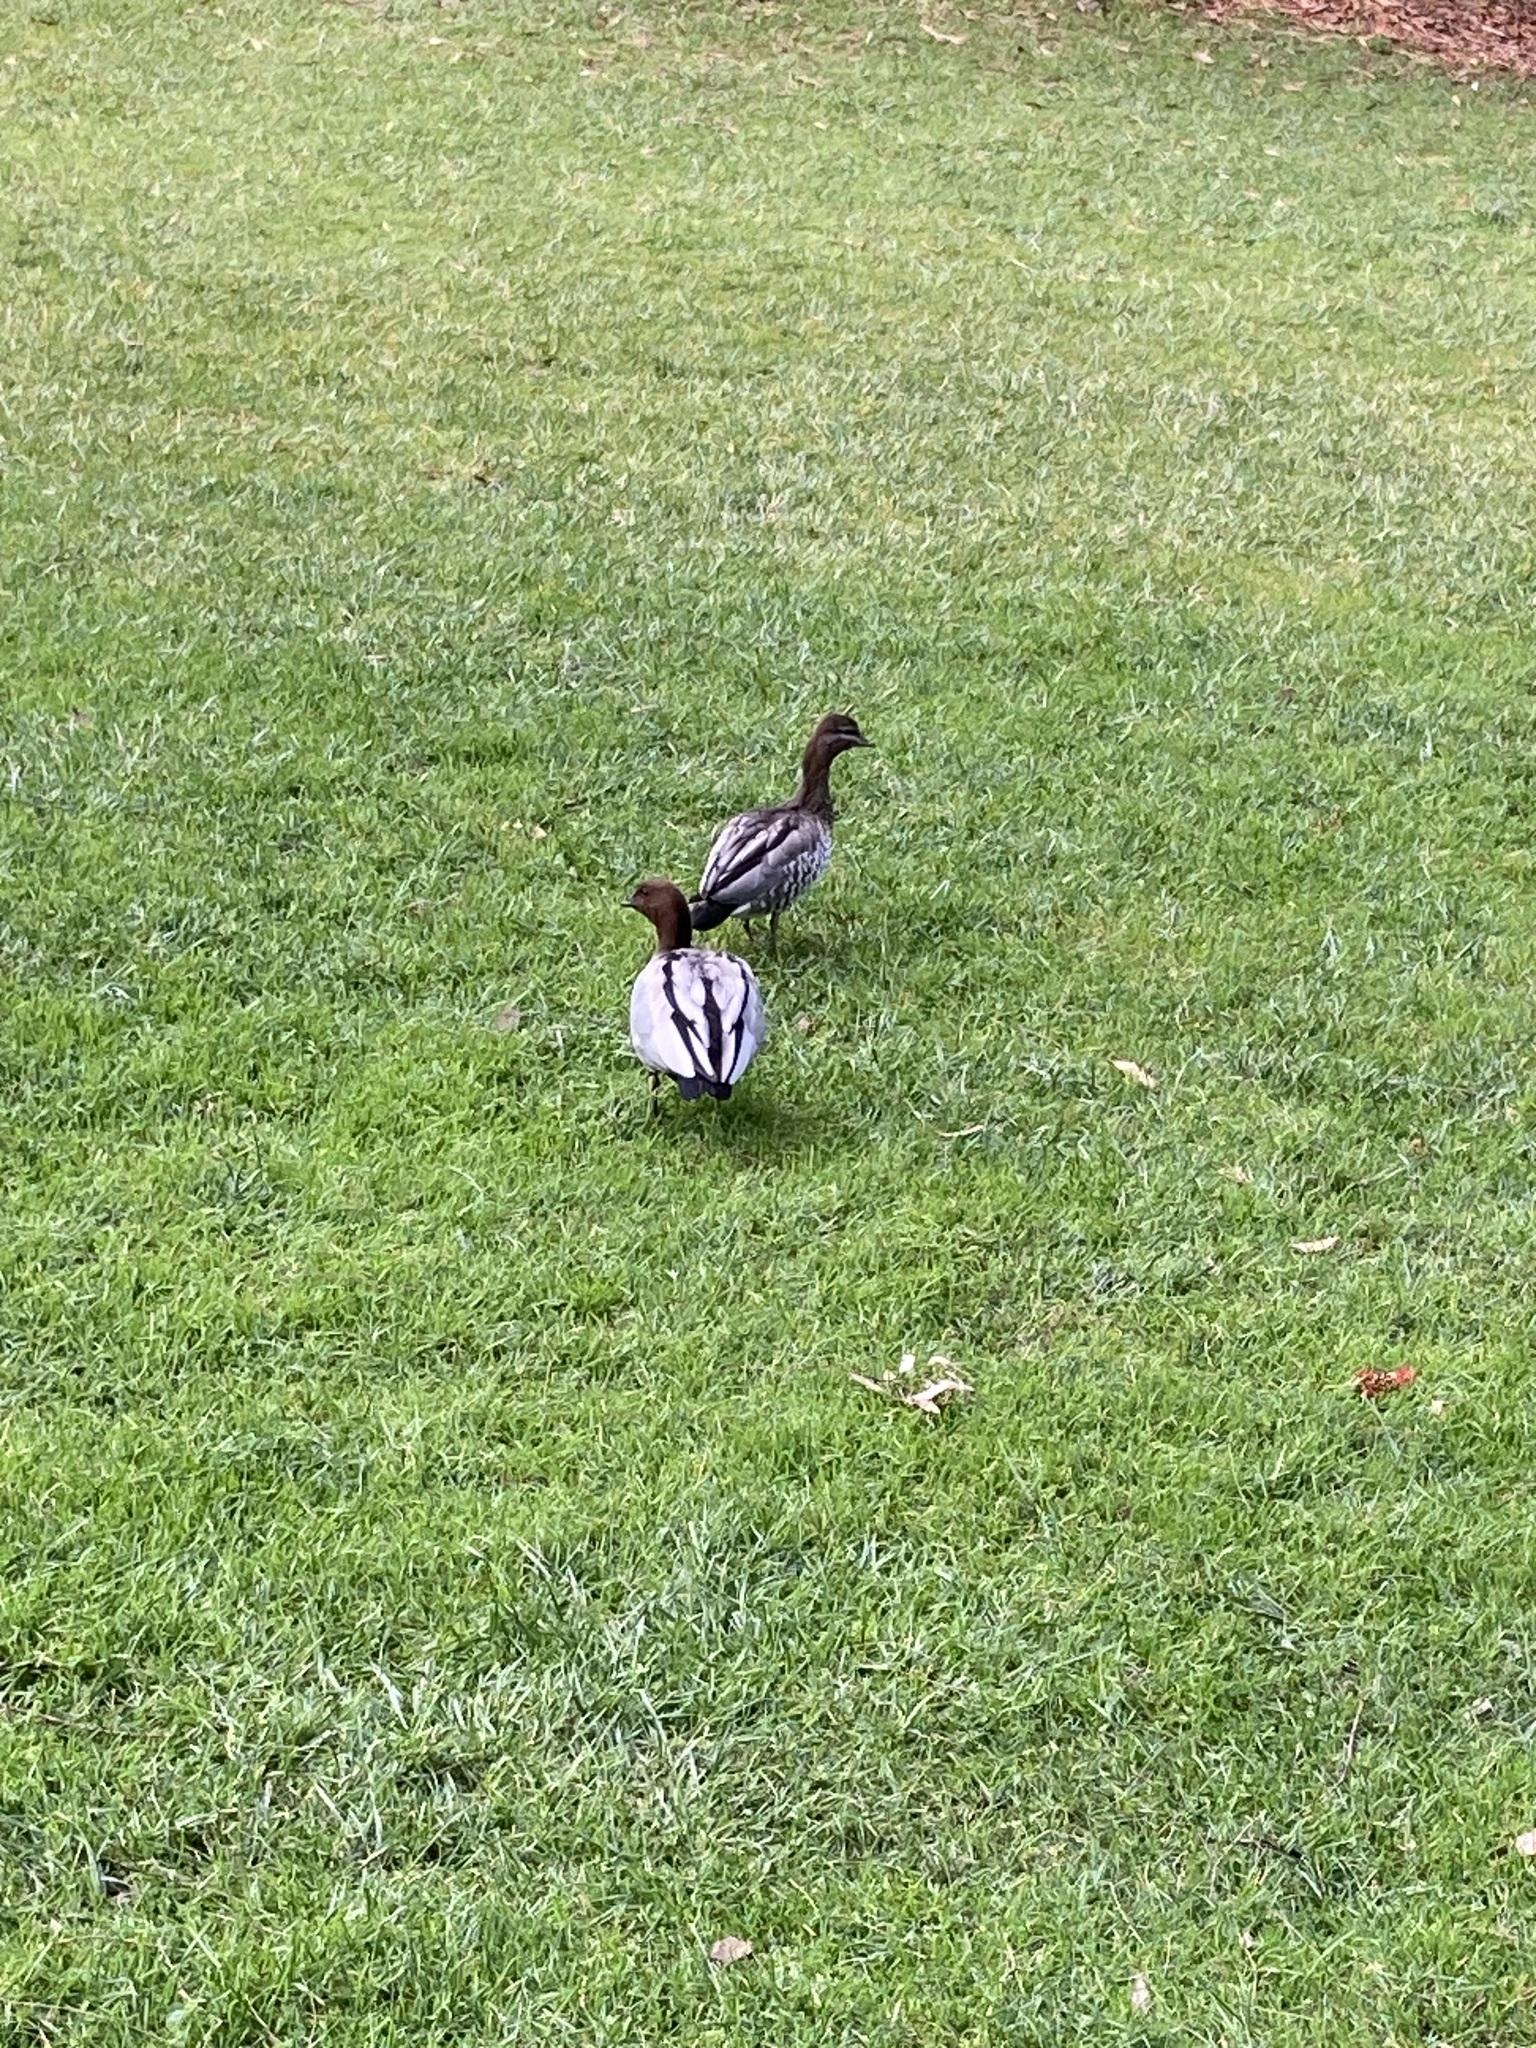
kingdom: Animalia
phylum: Chordata
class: Aves
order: Anseriformes
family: Anatidae
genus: Chenonetta
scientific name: Chenonetta jubata
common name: Maned duck
